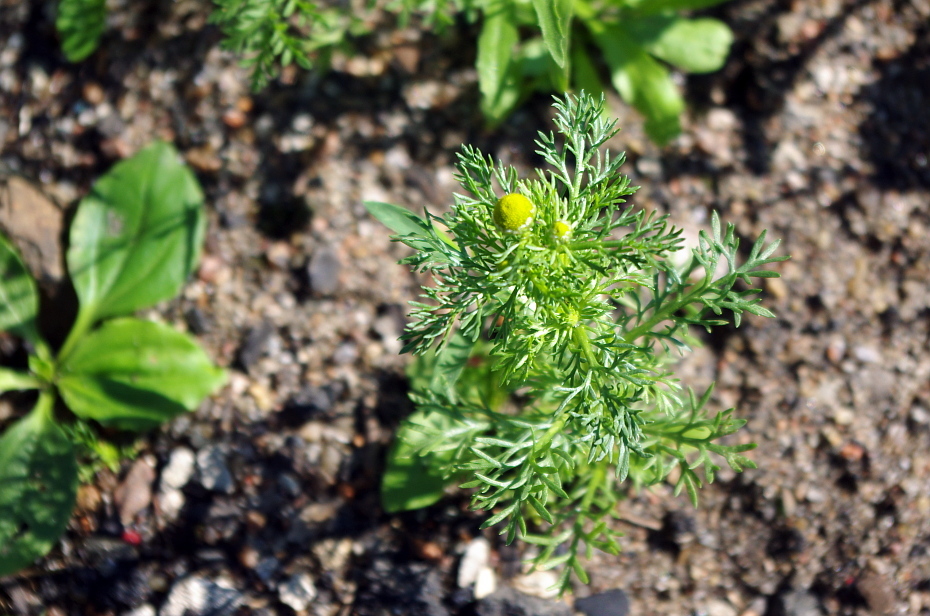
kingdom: Plantae
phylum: Tracheophyta
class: Magnoliopsida
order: Asterales
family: Asteraceae
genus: Matricaria
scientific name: Matricaria discoidea
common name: Disc mayweed
